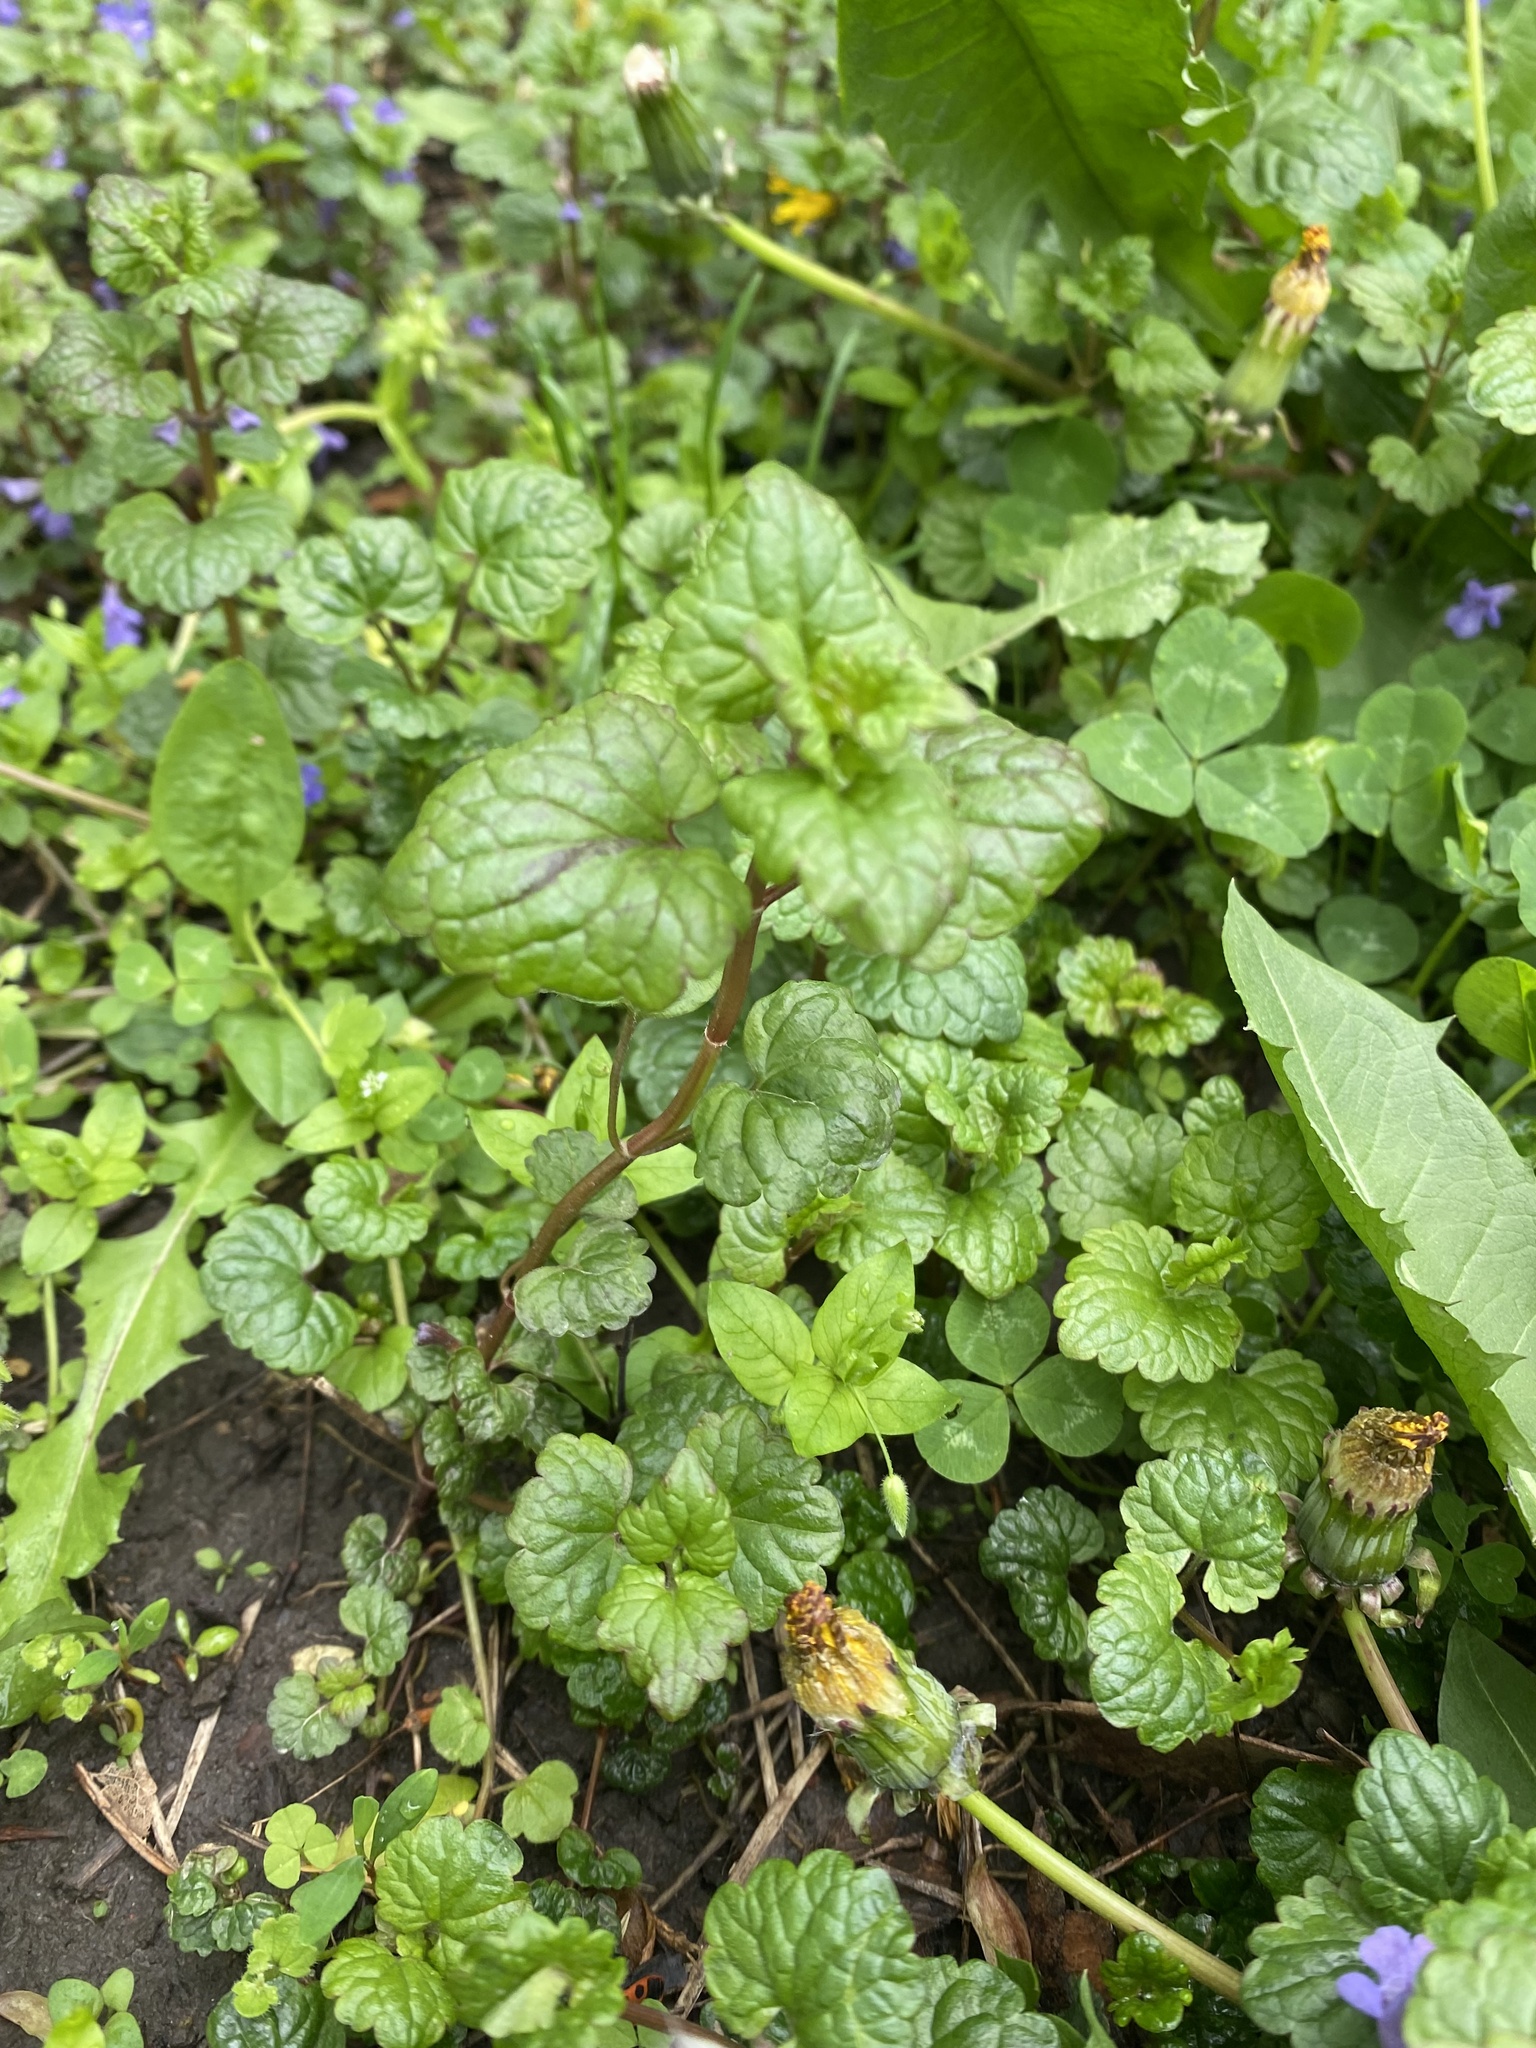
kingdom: Plantae
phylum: Tracheophyta
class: Magnoliopsida
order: Lamiales
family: Lamiaceae
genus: Glechoma
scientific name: Glechoma hederacea
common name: Ground ivy
